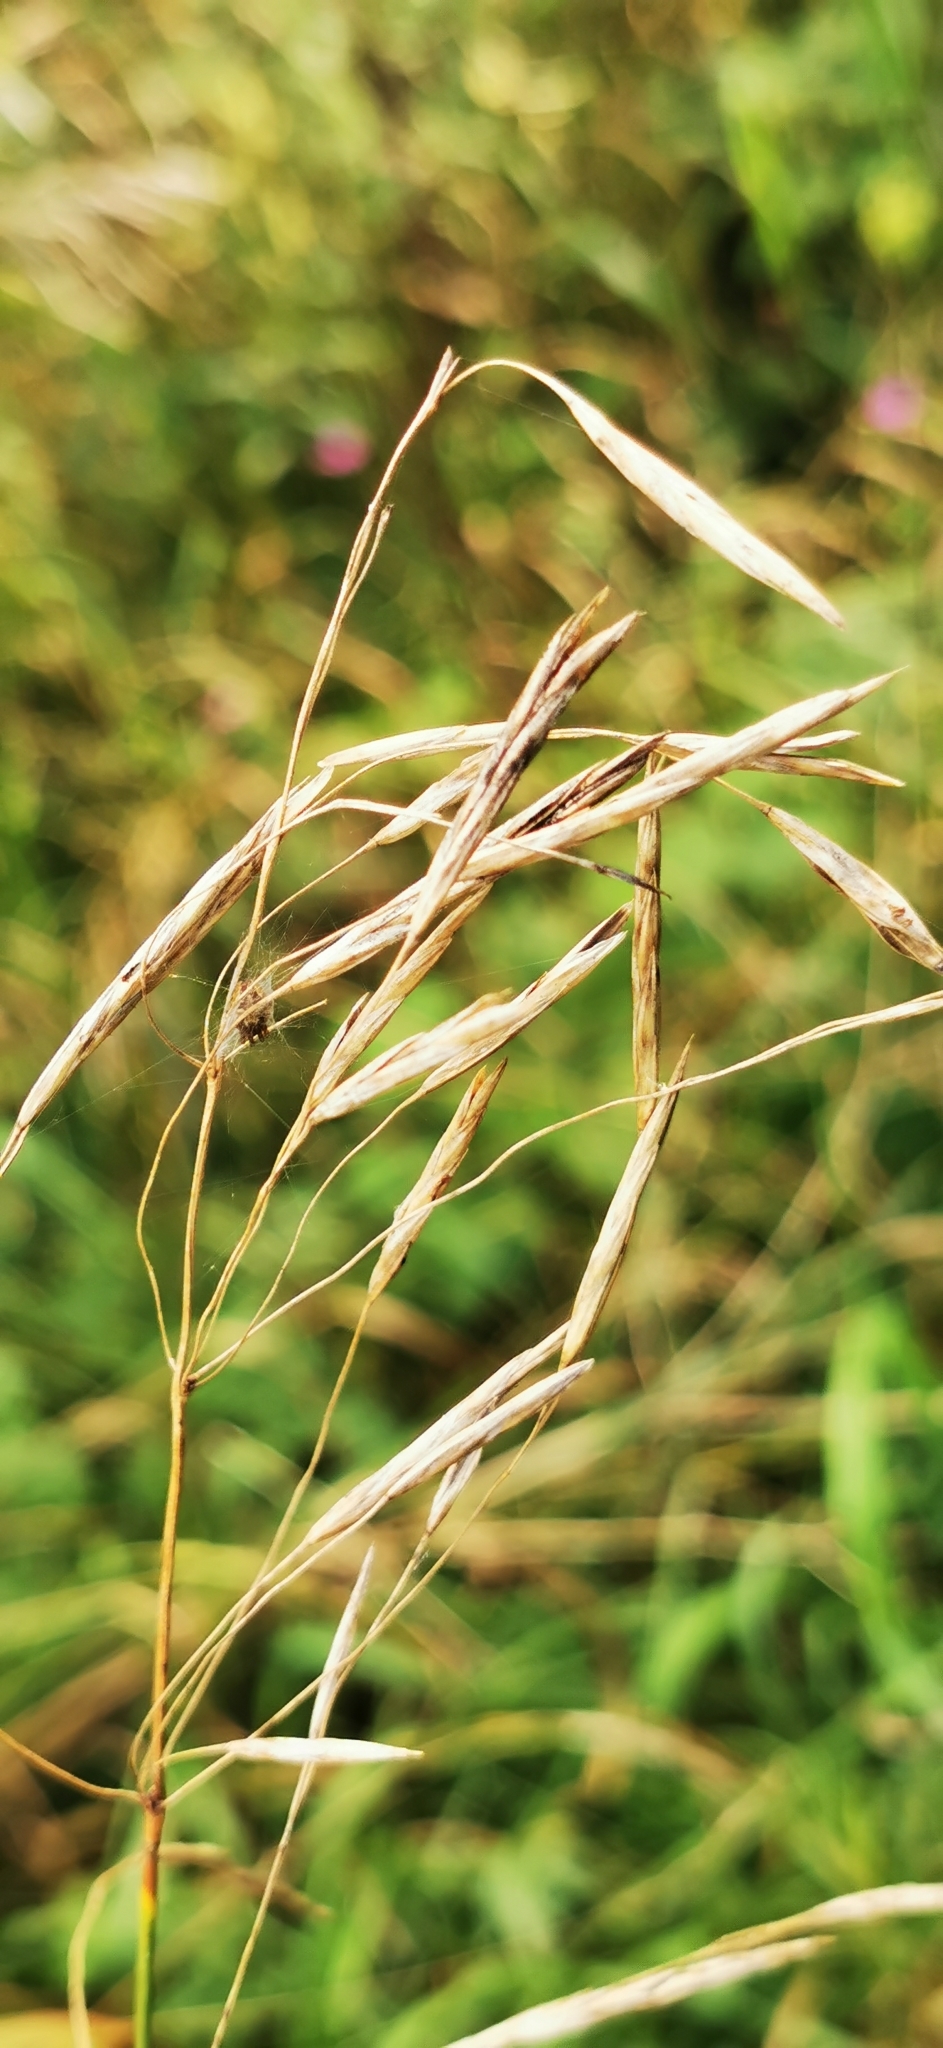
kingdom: Plantae
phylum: Tracheophyta
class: Liliopsida
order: Poales
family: Poaceae
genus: Bromus
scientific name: Bromus inermis
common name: Smooth brome
